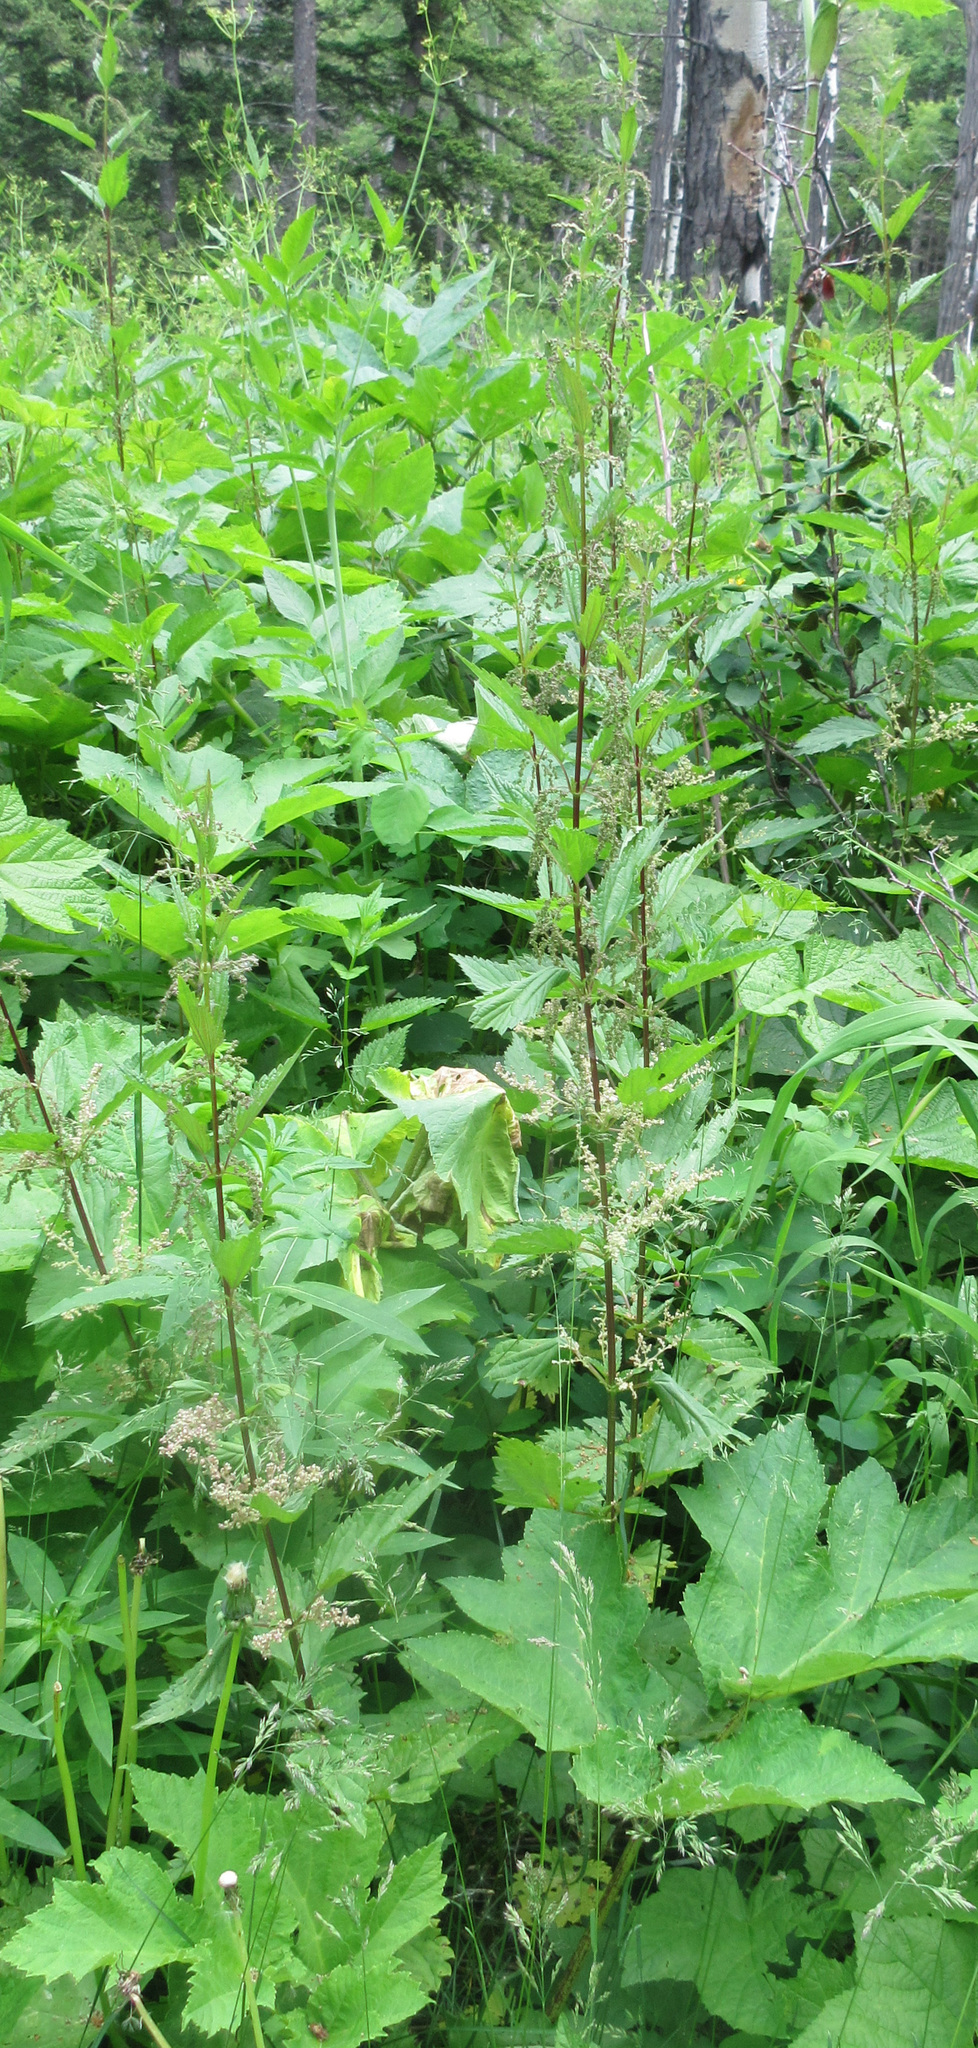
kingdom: Plantae
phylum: Tracheophyta
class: Magnoliopsida
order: Rosales
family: Urticaceae
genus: Urtica
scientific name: Urtica gracilis
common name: Slender stinging nettle
